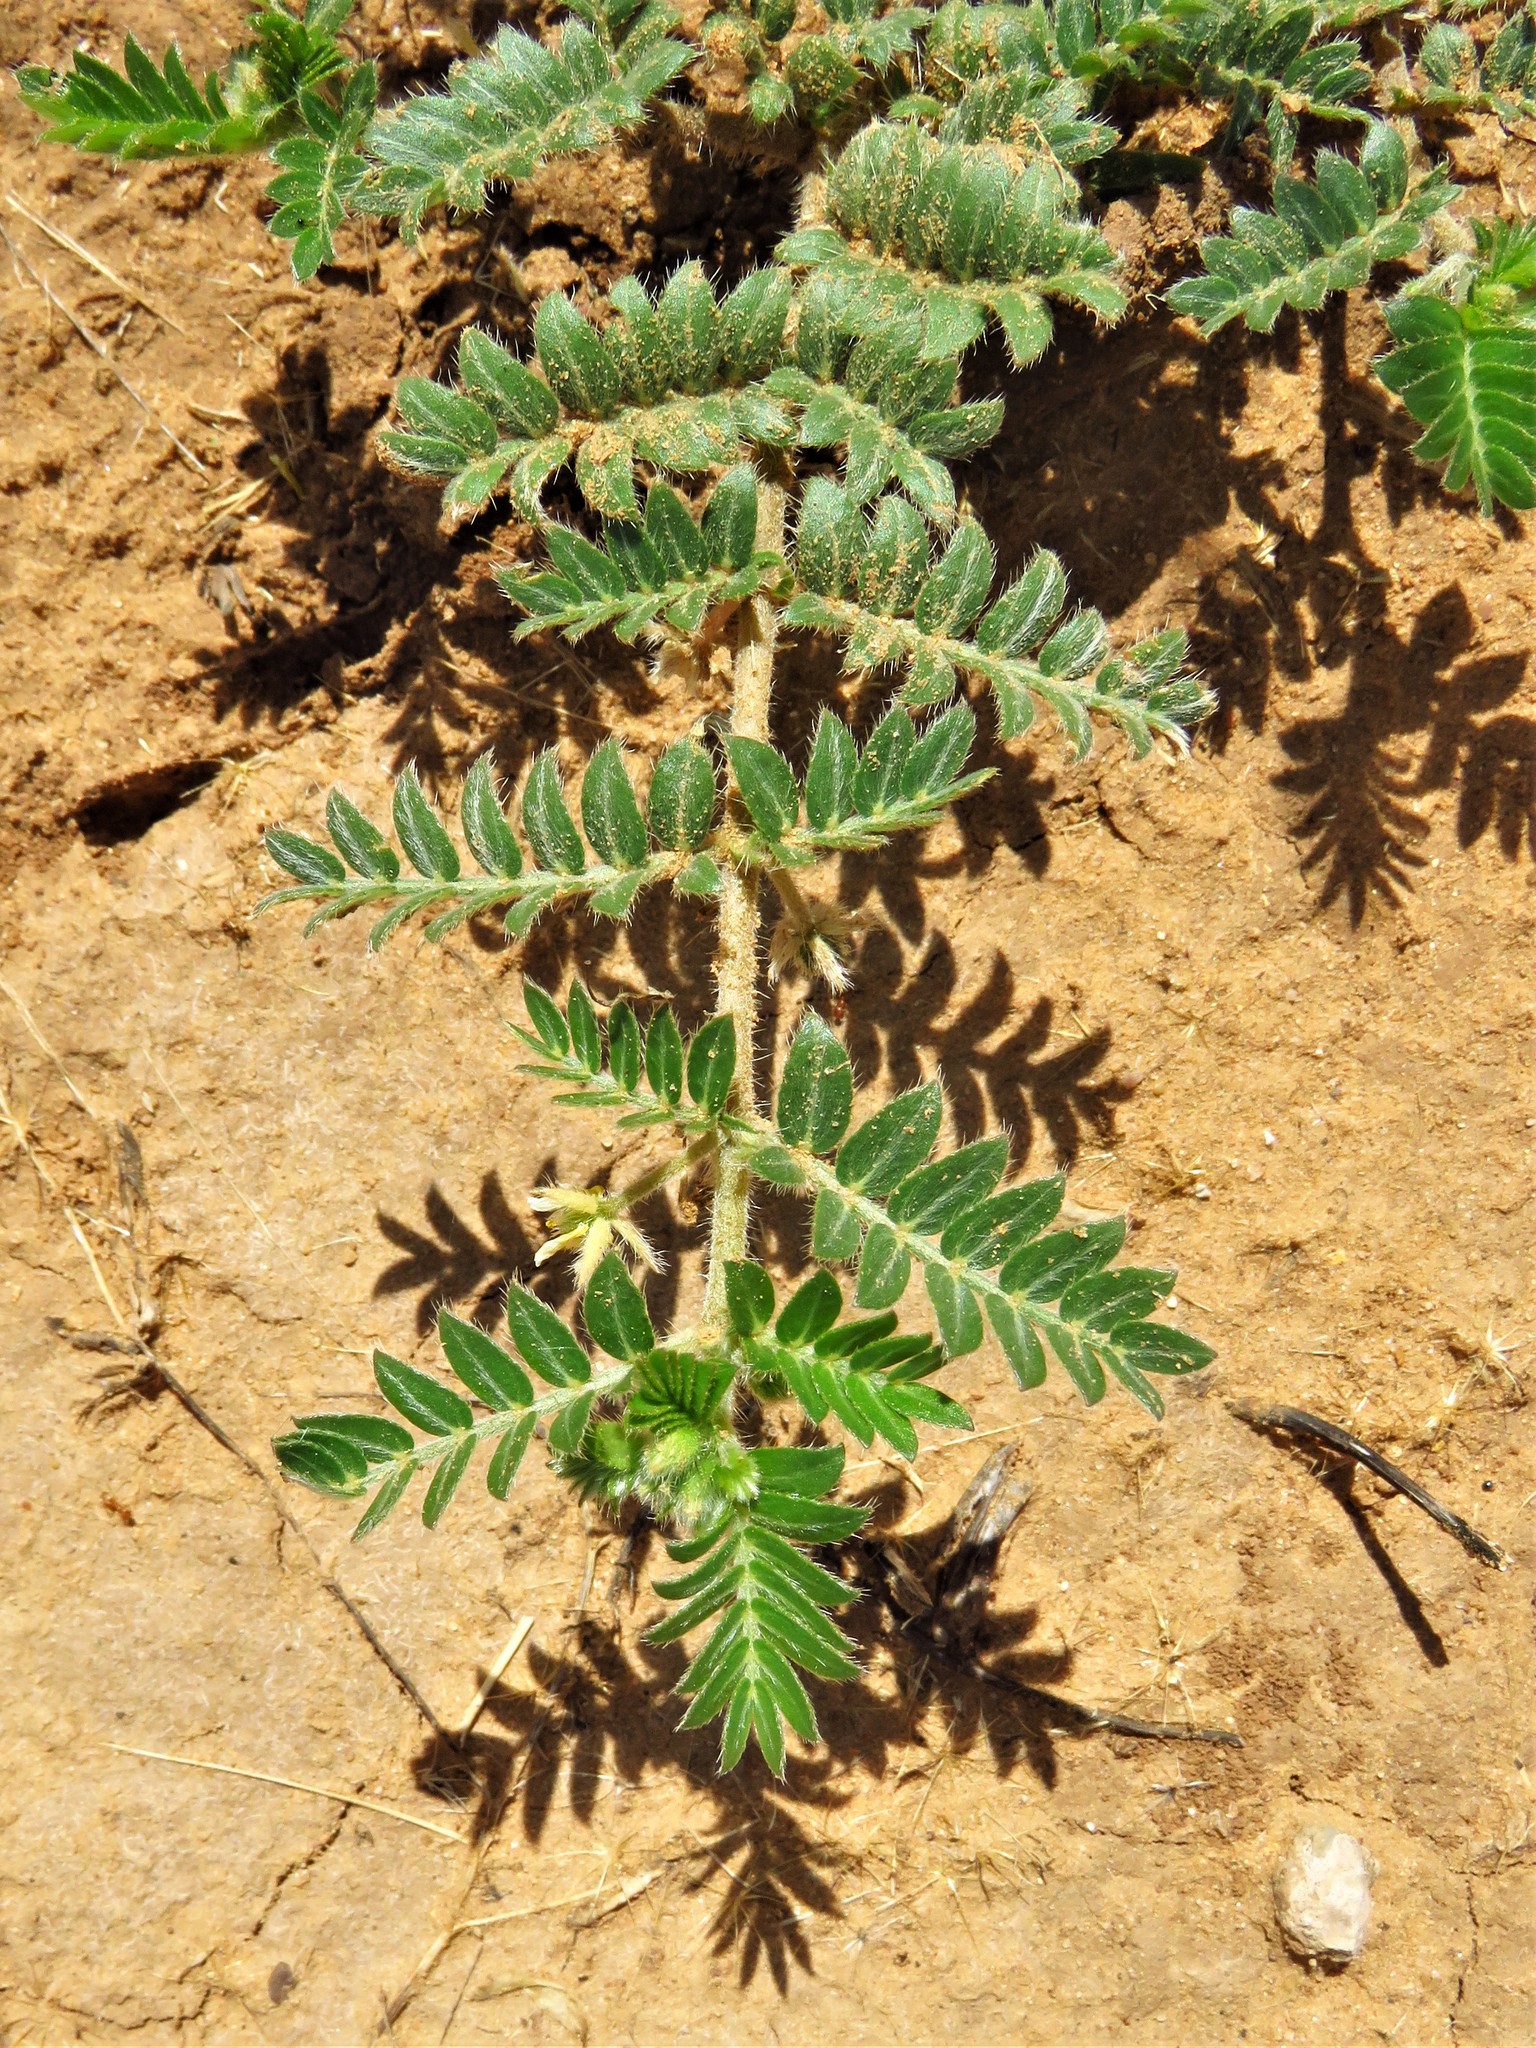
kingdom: Plantae
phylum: Tracheophyta
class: Magnoliopsida
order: Zygophyllales
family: Zygophyllaceae
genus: Tribulus
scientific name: Tribulus terrestris
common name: Puncturevine
